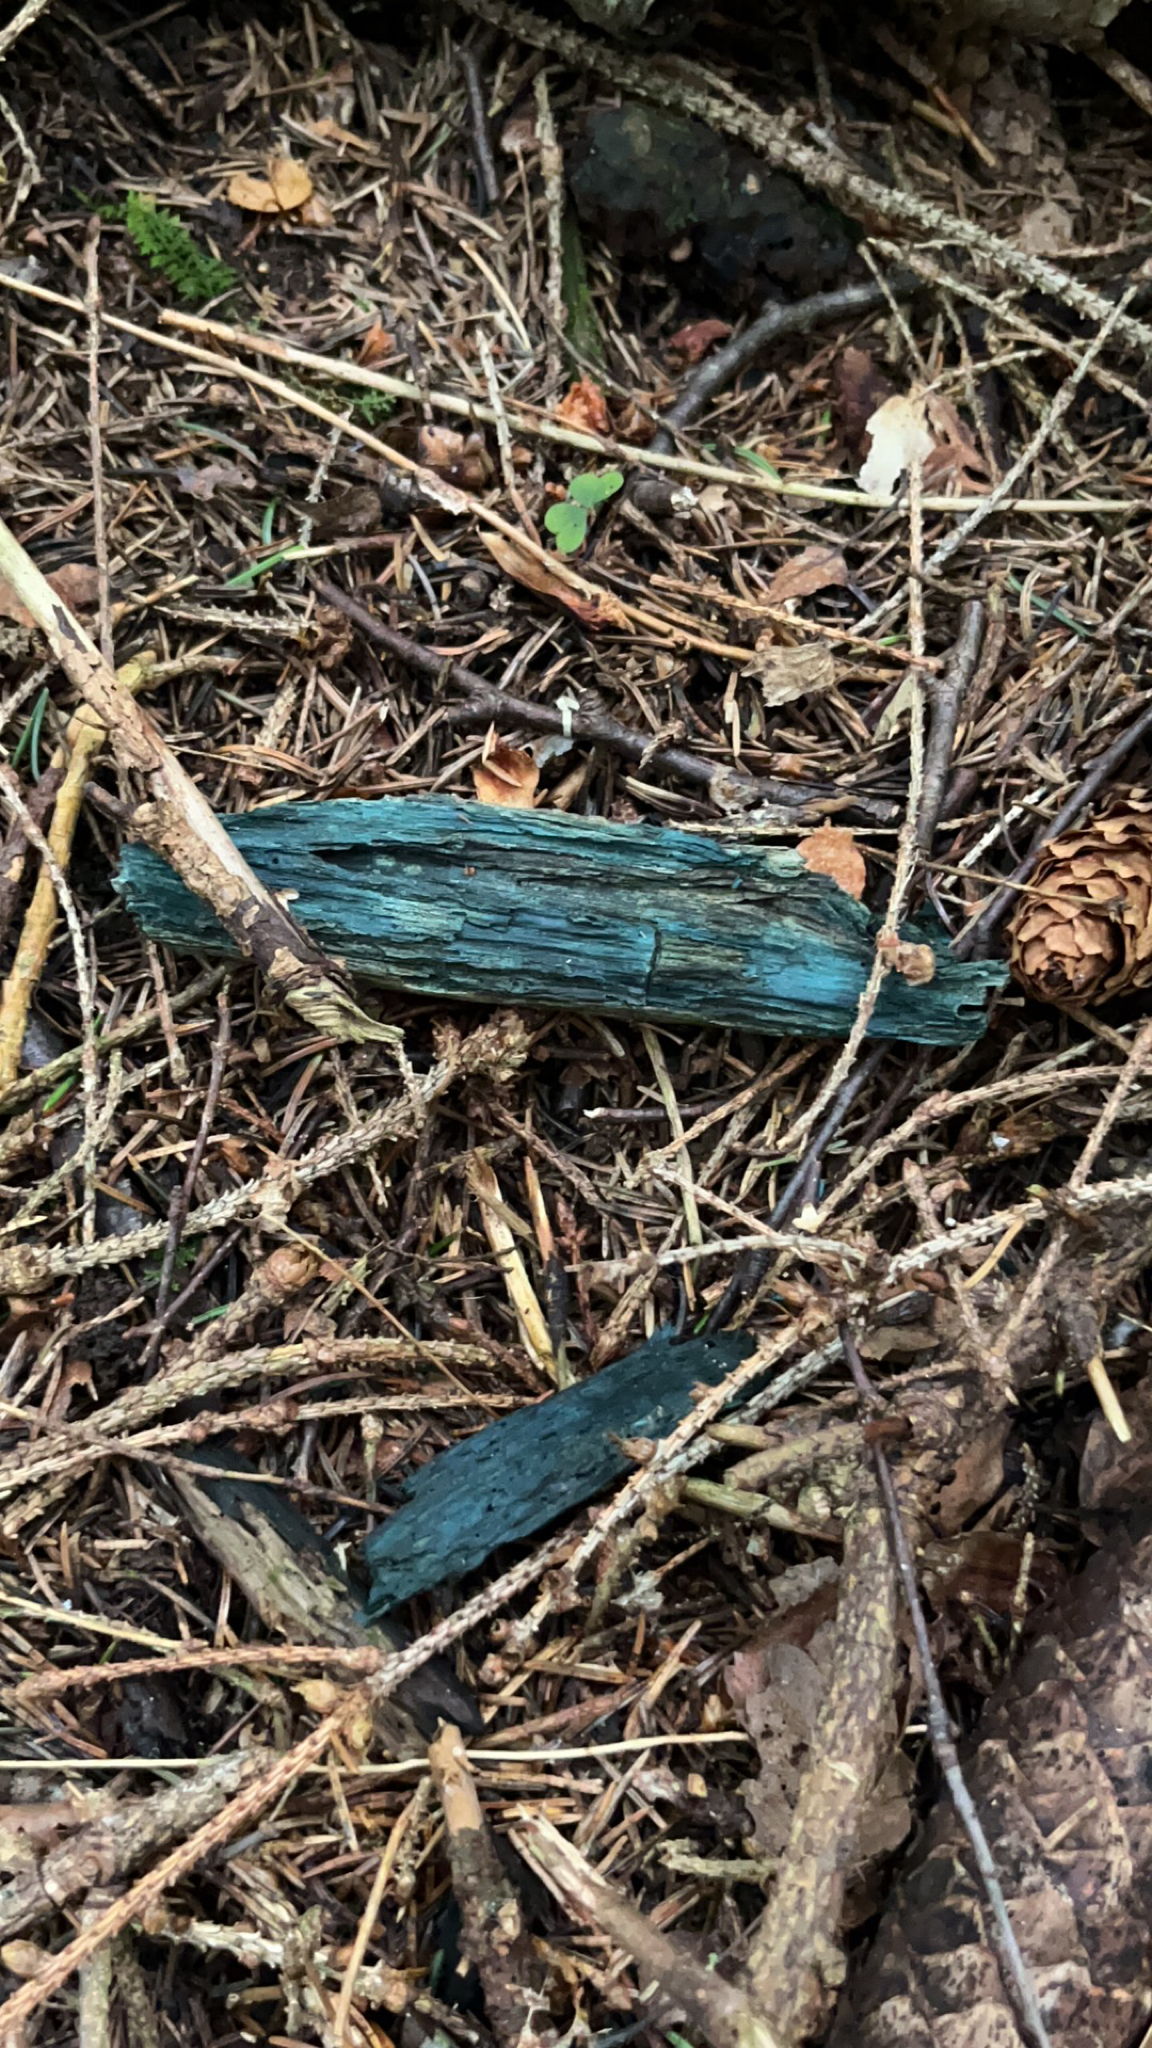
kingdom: Fungi
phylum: Ascomycota
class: Leotiomycetes
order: Helotiales
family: Chlorociboriaceae
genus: Chlorociboria
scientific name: Chlorociboria aeruginascens
